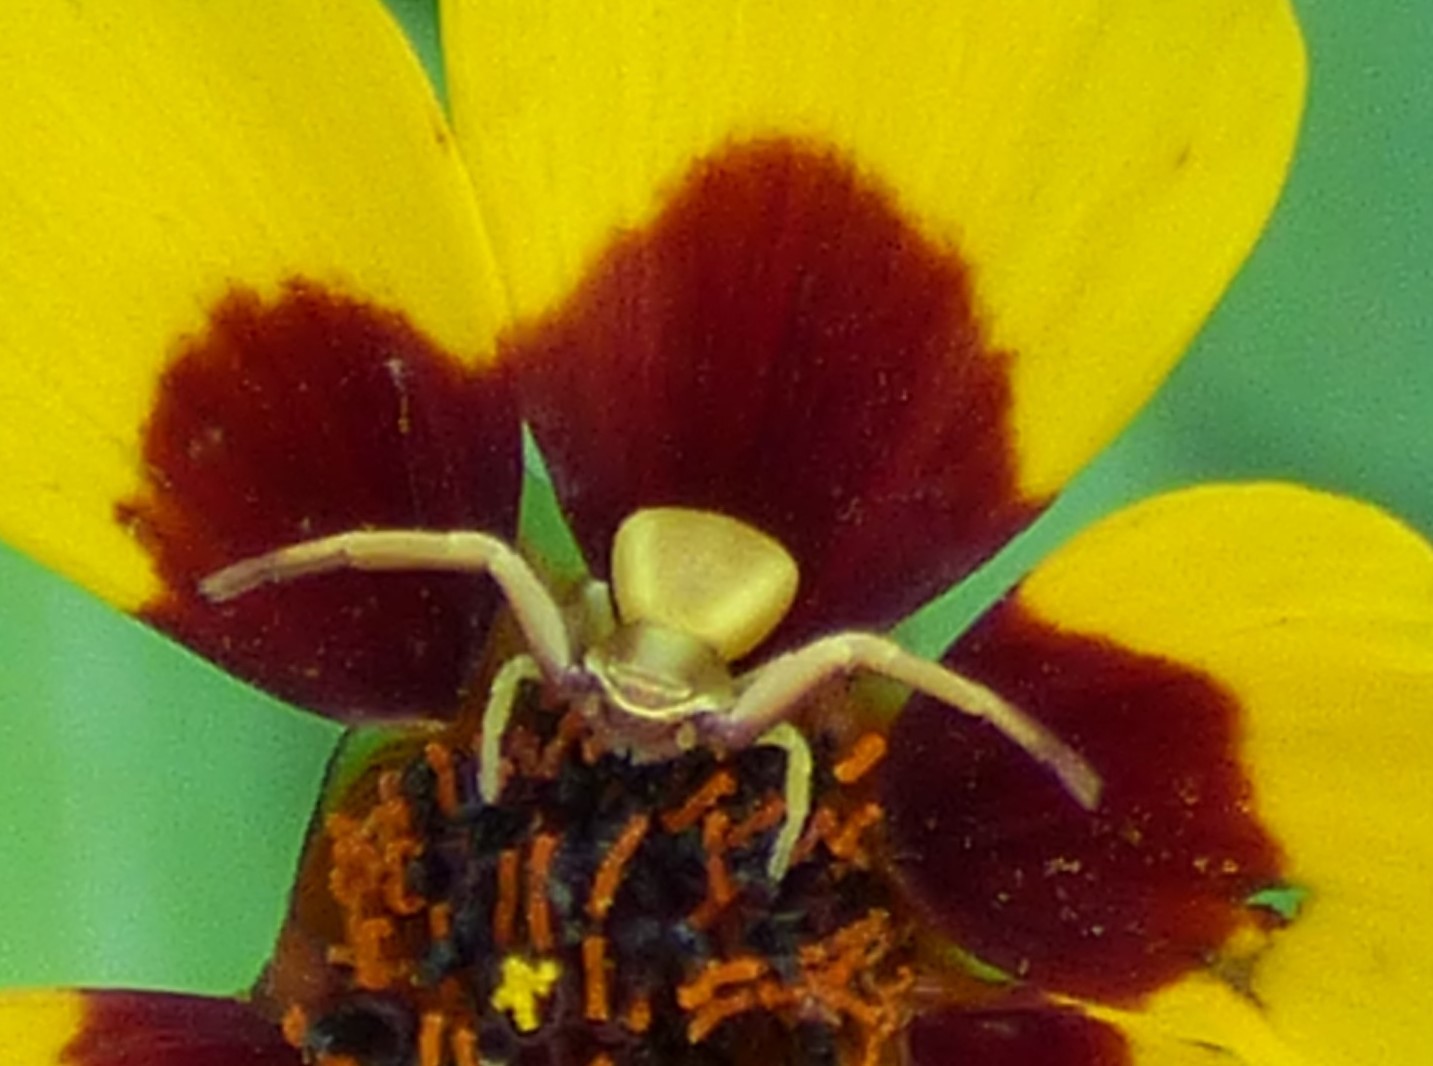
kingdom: Animalia
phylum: Arthropoda
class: Arachnida
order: Araneae
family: Thomisidae
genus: Misumenoides
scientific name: Misumenoides formosipes
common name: White-banded crab spider
